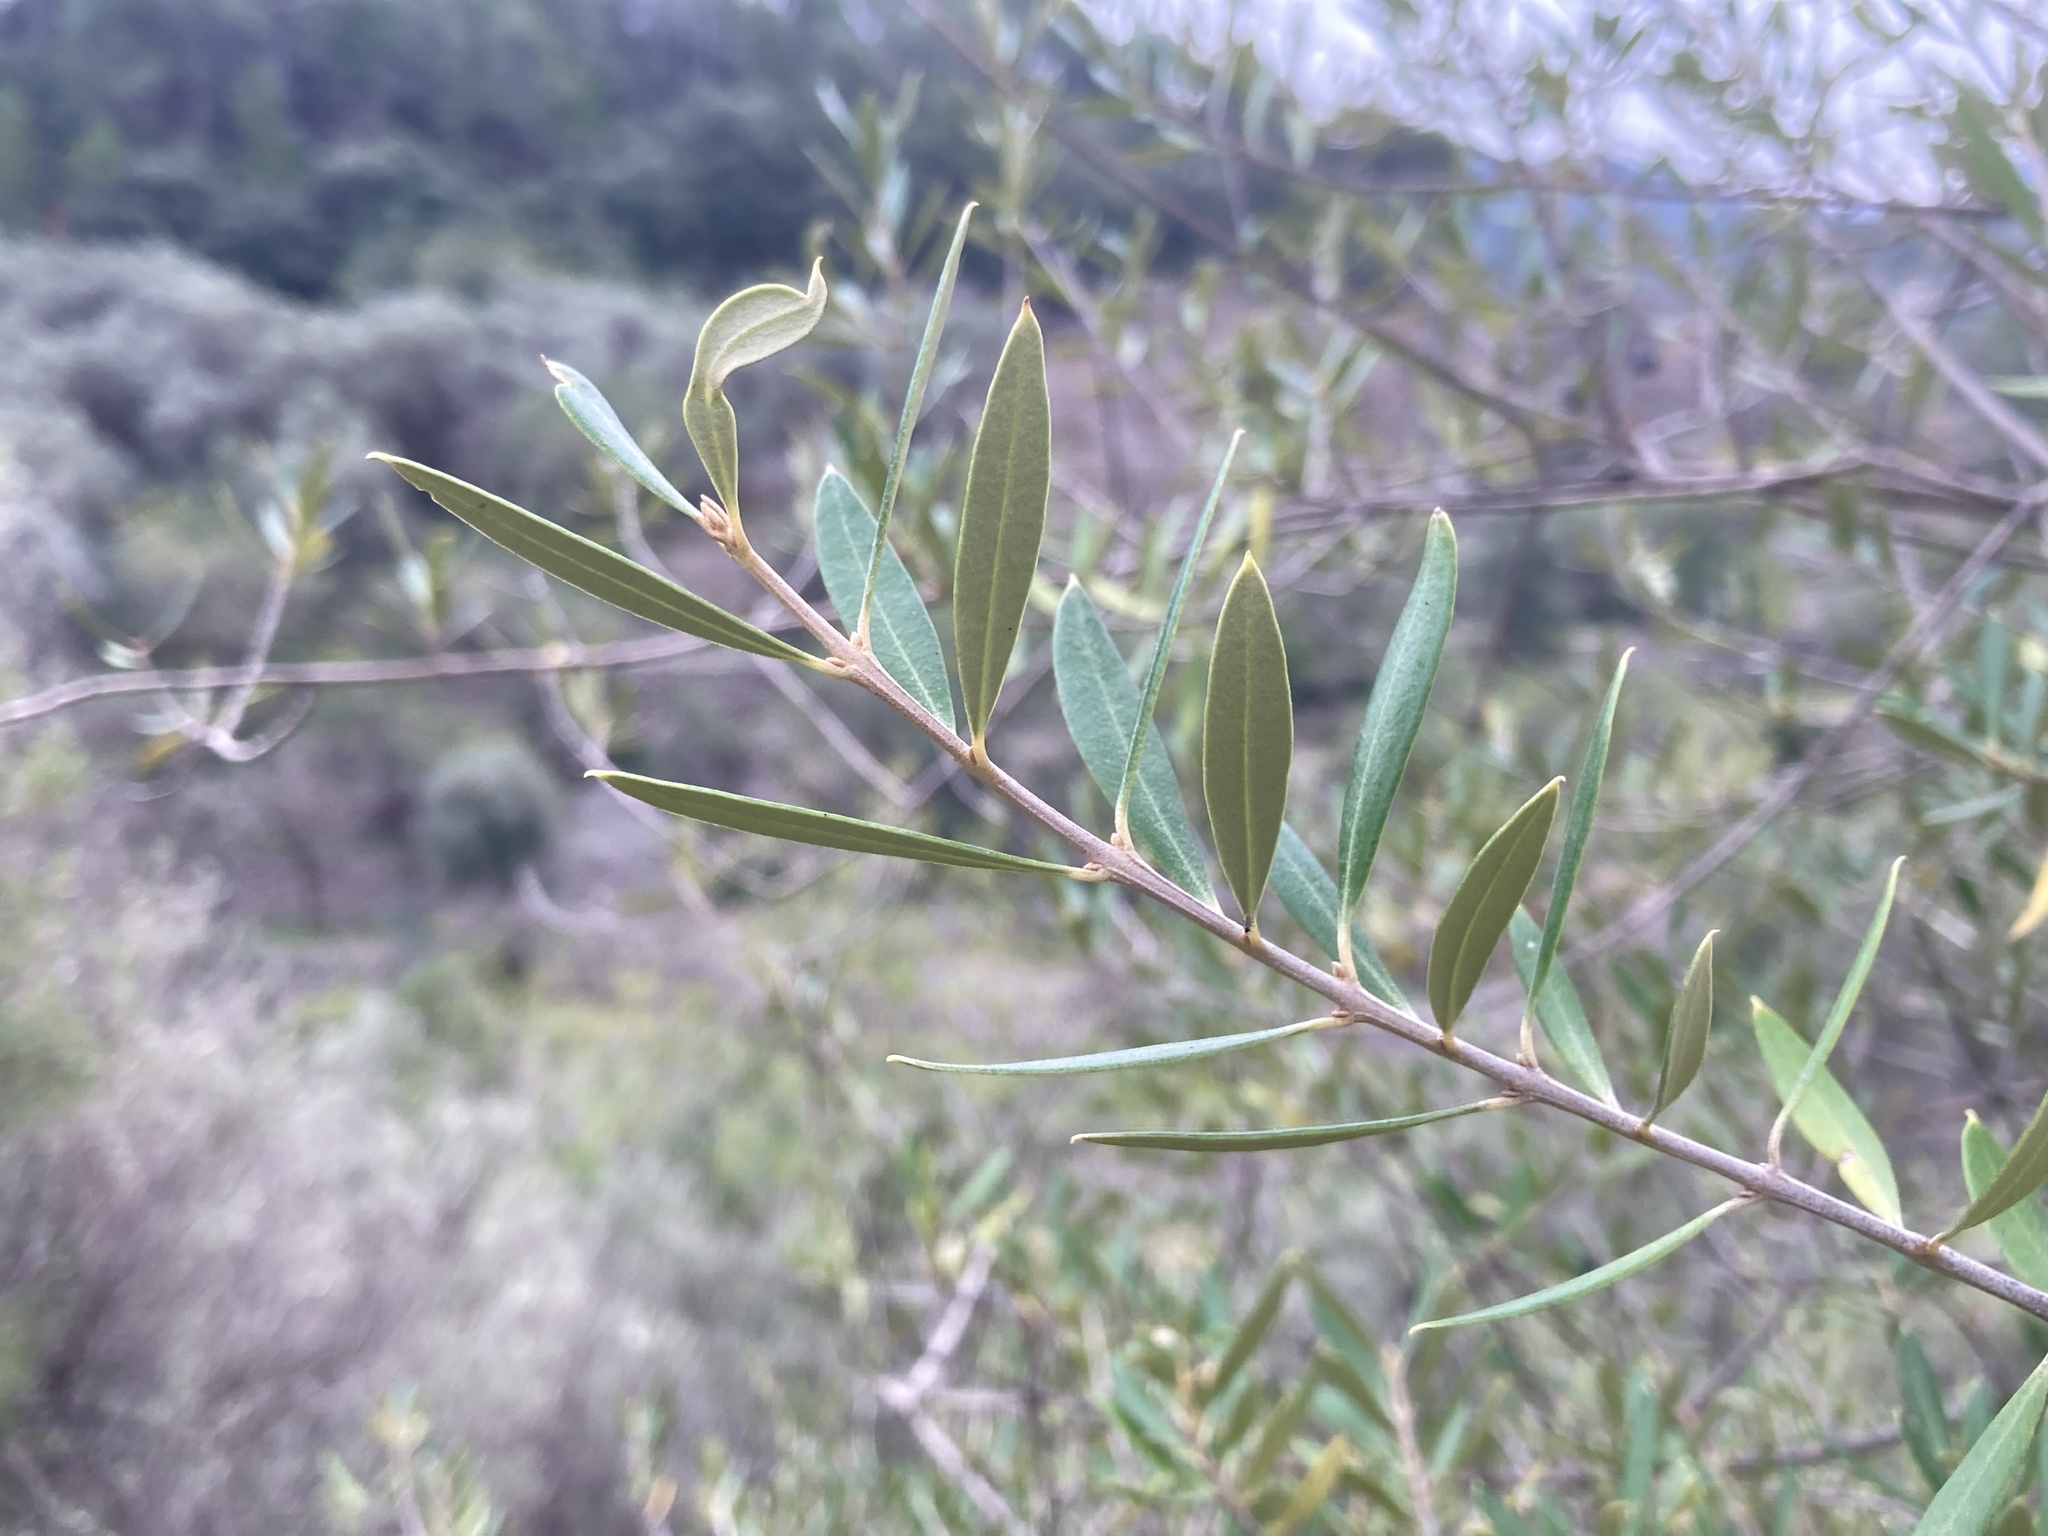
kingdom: Plantae
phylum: Tracheophyta
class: Magnoliopsida
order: Lamiales
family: Oleaceae
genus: Olea
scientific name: Olea europaea
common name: Olive
